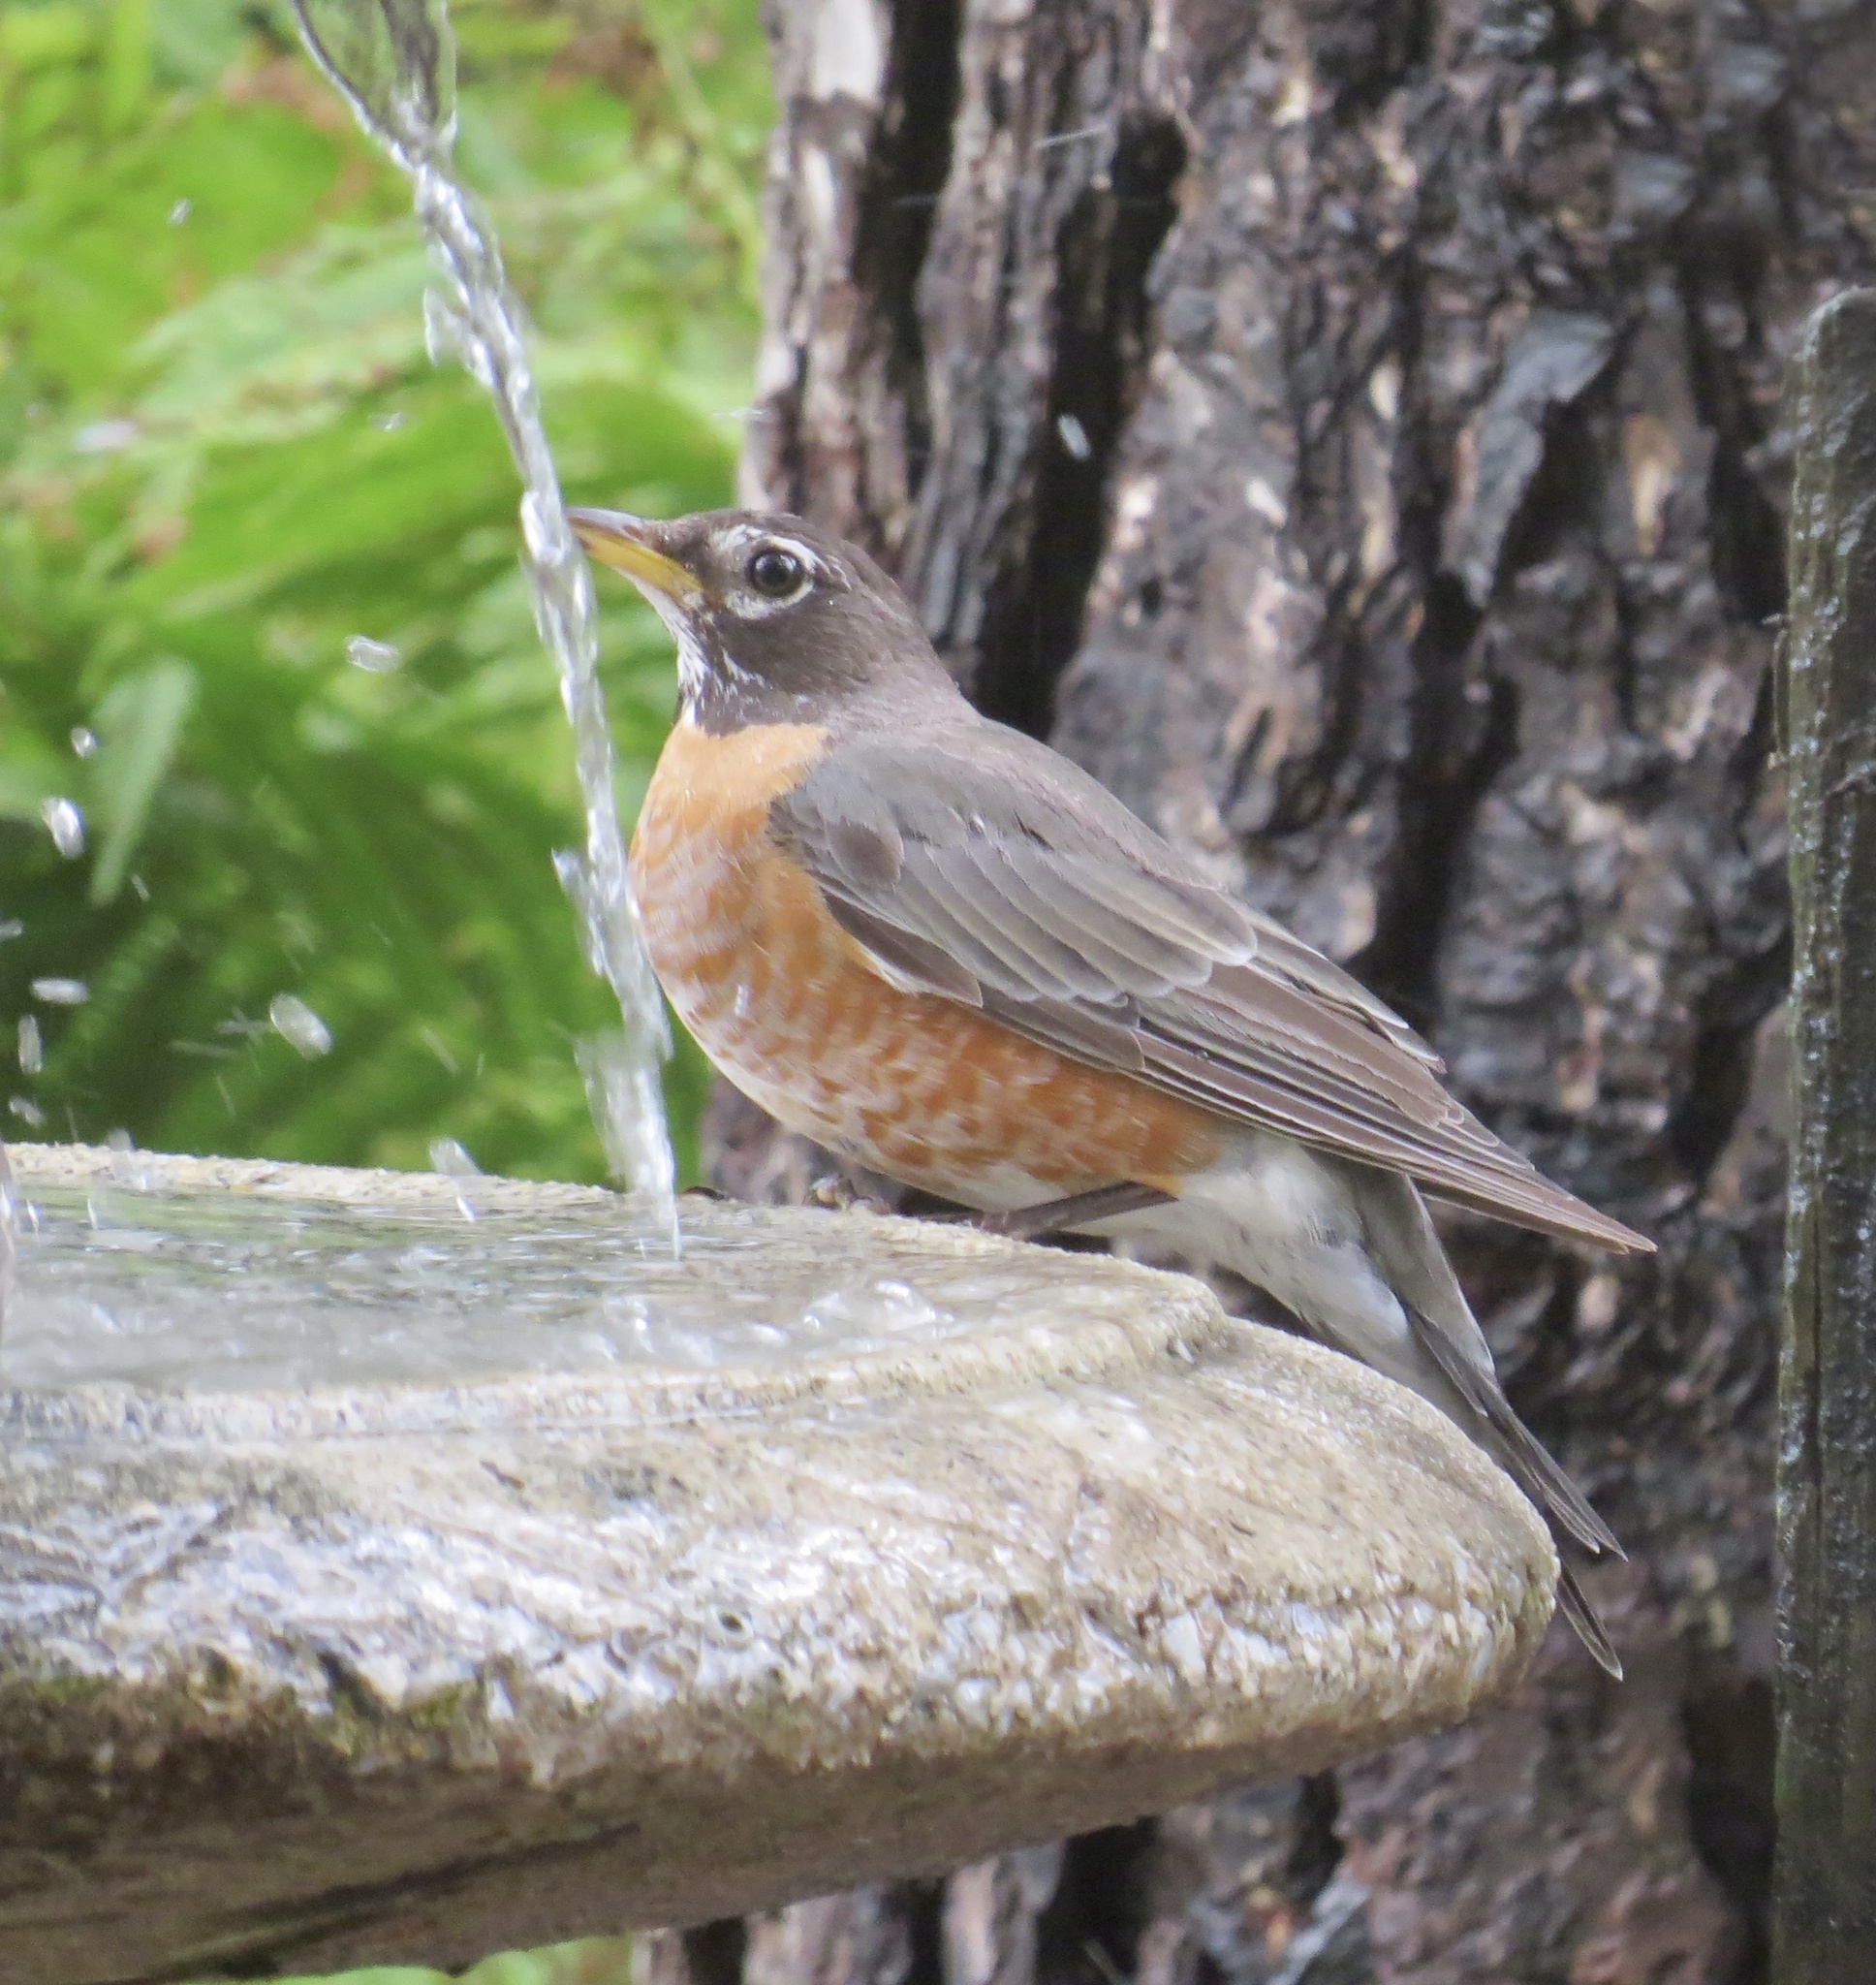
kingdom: Animalia
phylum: Chordata
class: Aves
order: Passeriformes
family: Turdidae
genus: Turdus
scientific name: Turdus migratorius
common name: American robin
